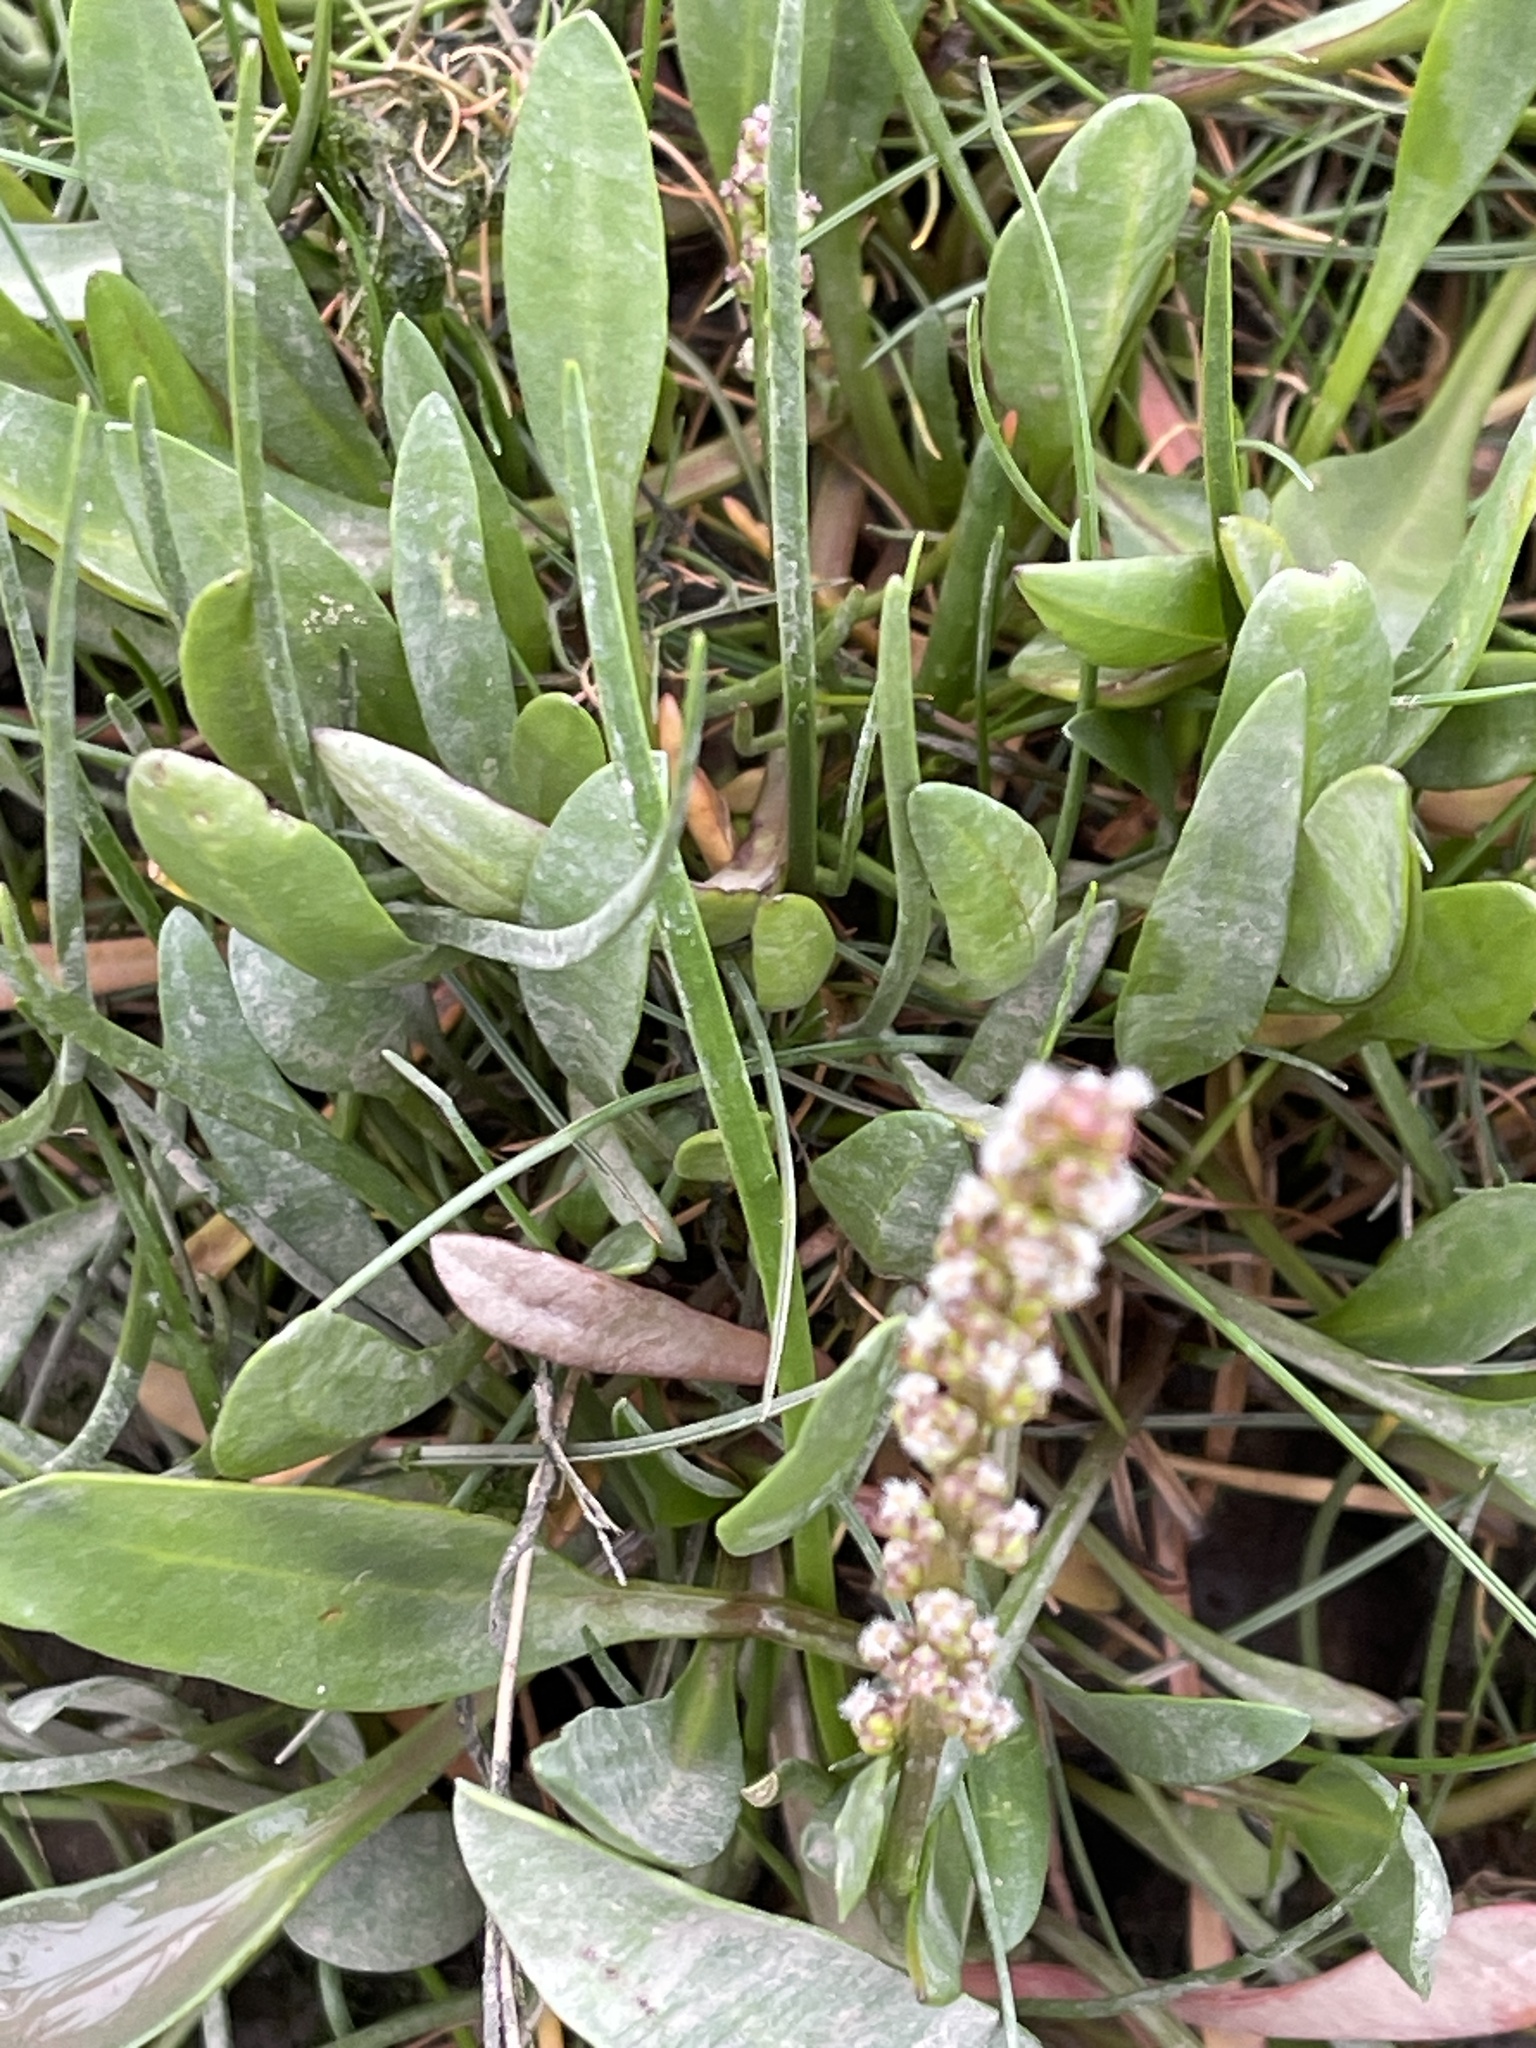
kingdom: Plantae
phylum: Tracheophyta
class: Liliopsida
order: Alismatales
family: Juncaginaceae
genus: Triglochin
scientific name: Triglochin maritima
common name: Sea arrowgrass
